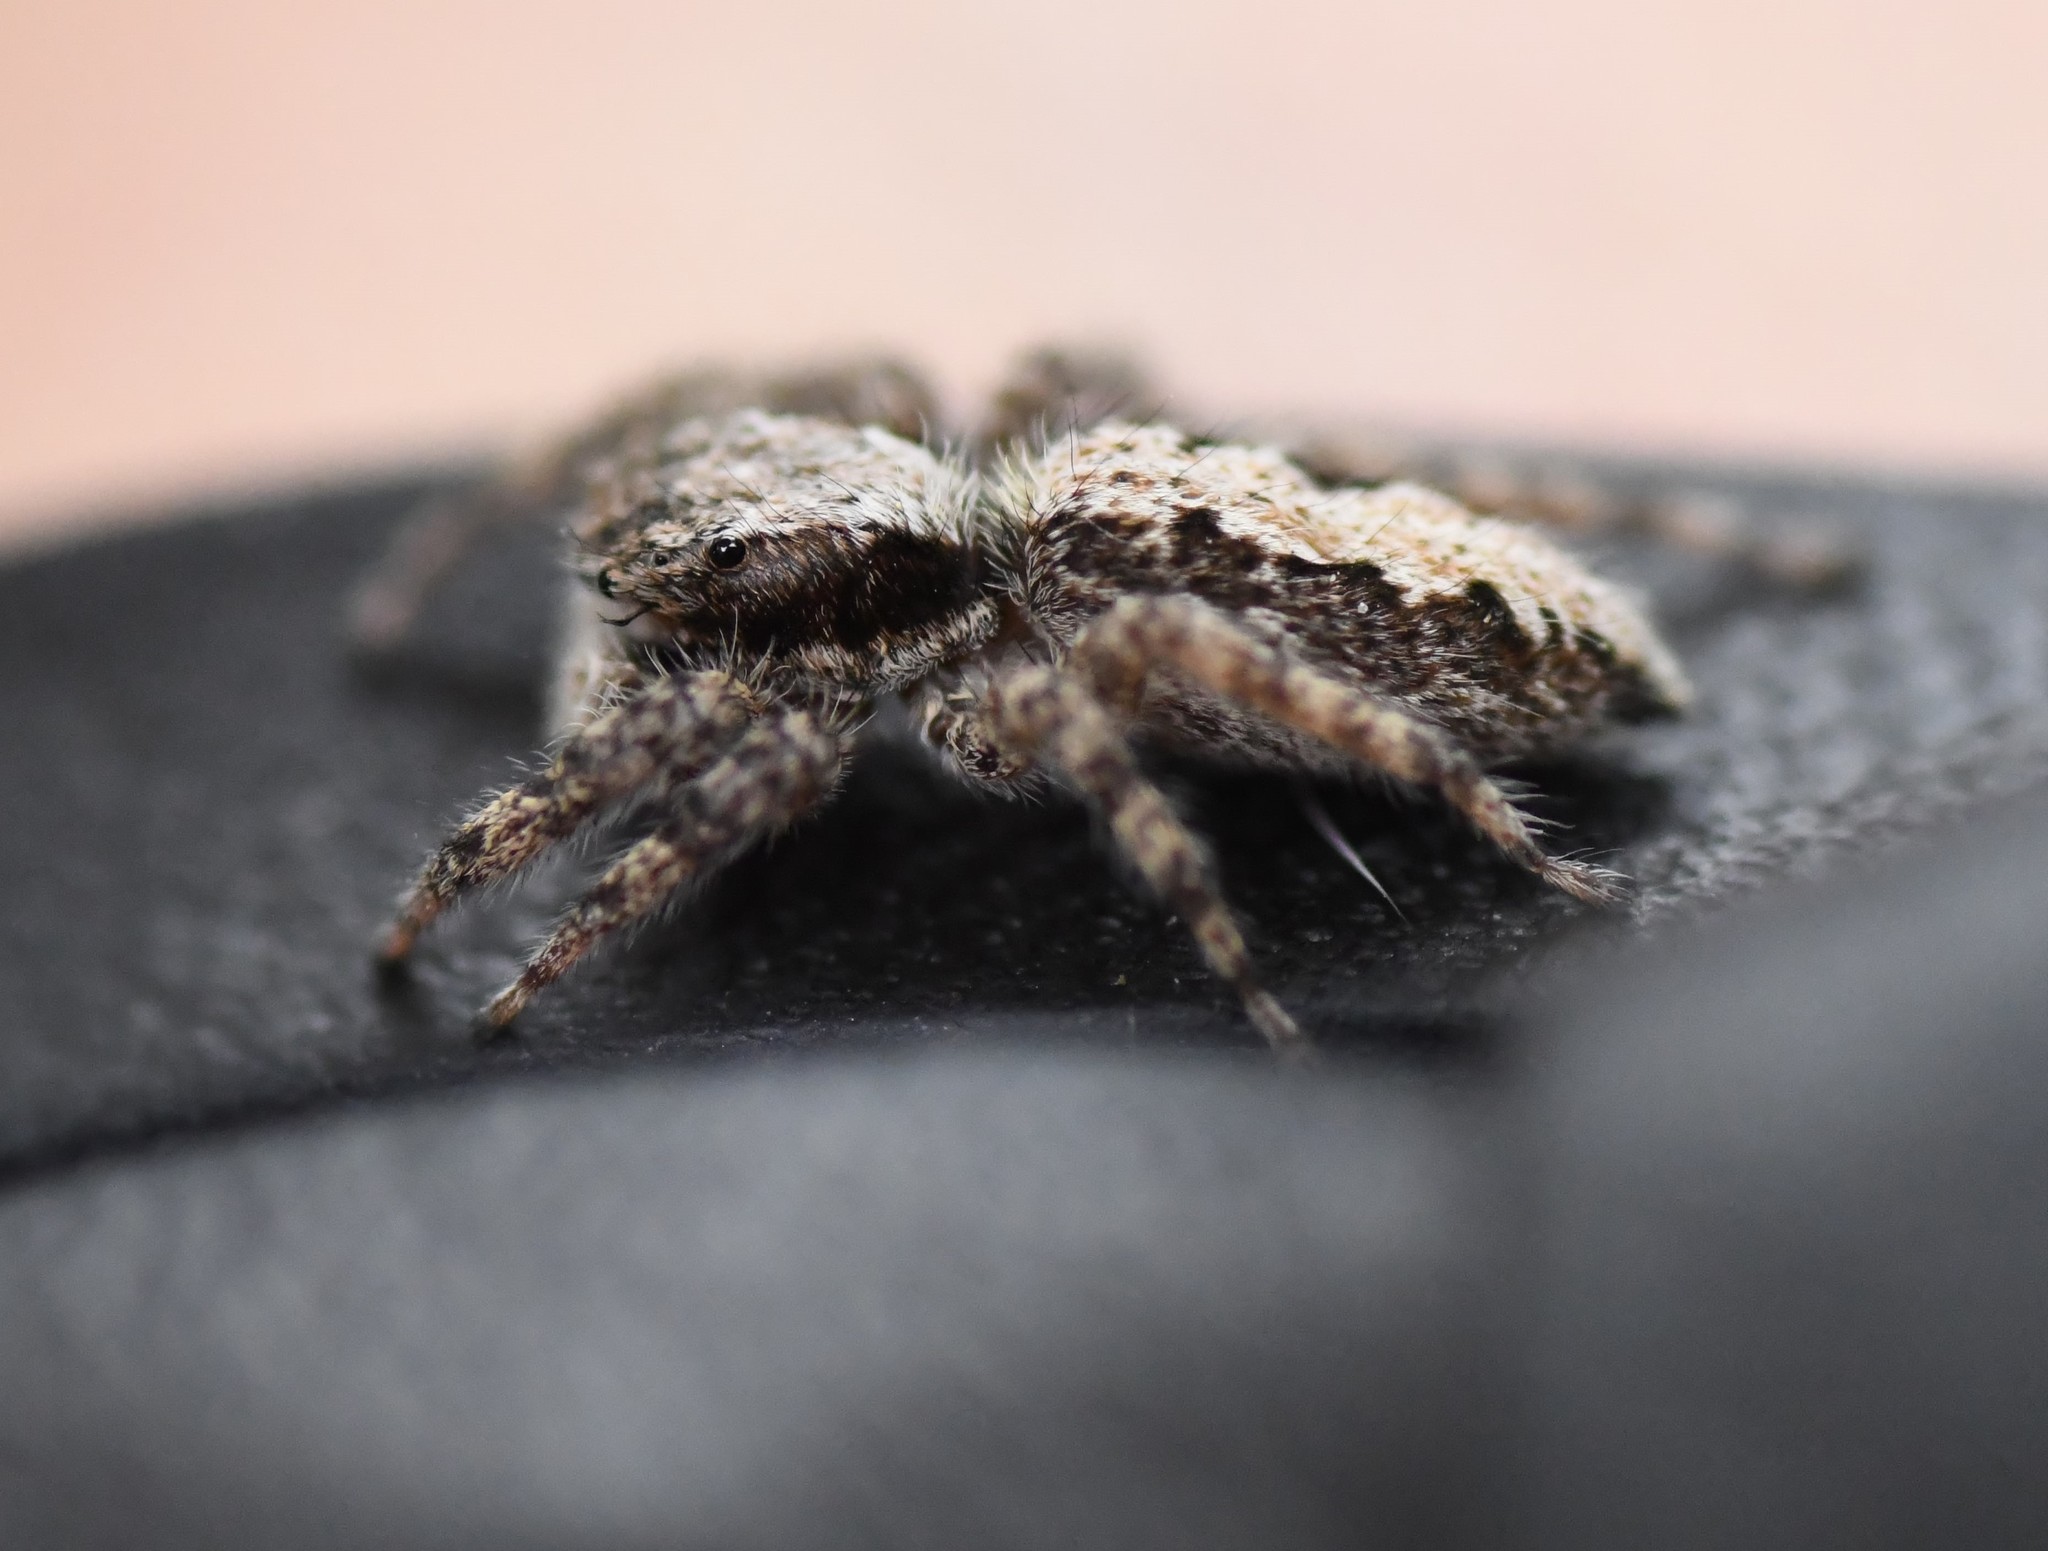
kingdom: Animalia
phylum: Arthropoda
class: Arachnida
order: Araneae
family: Salticidae
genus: Platycryptus
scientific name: Platycryptus californicus
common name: Jumping spiders
